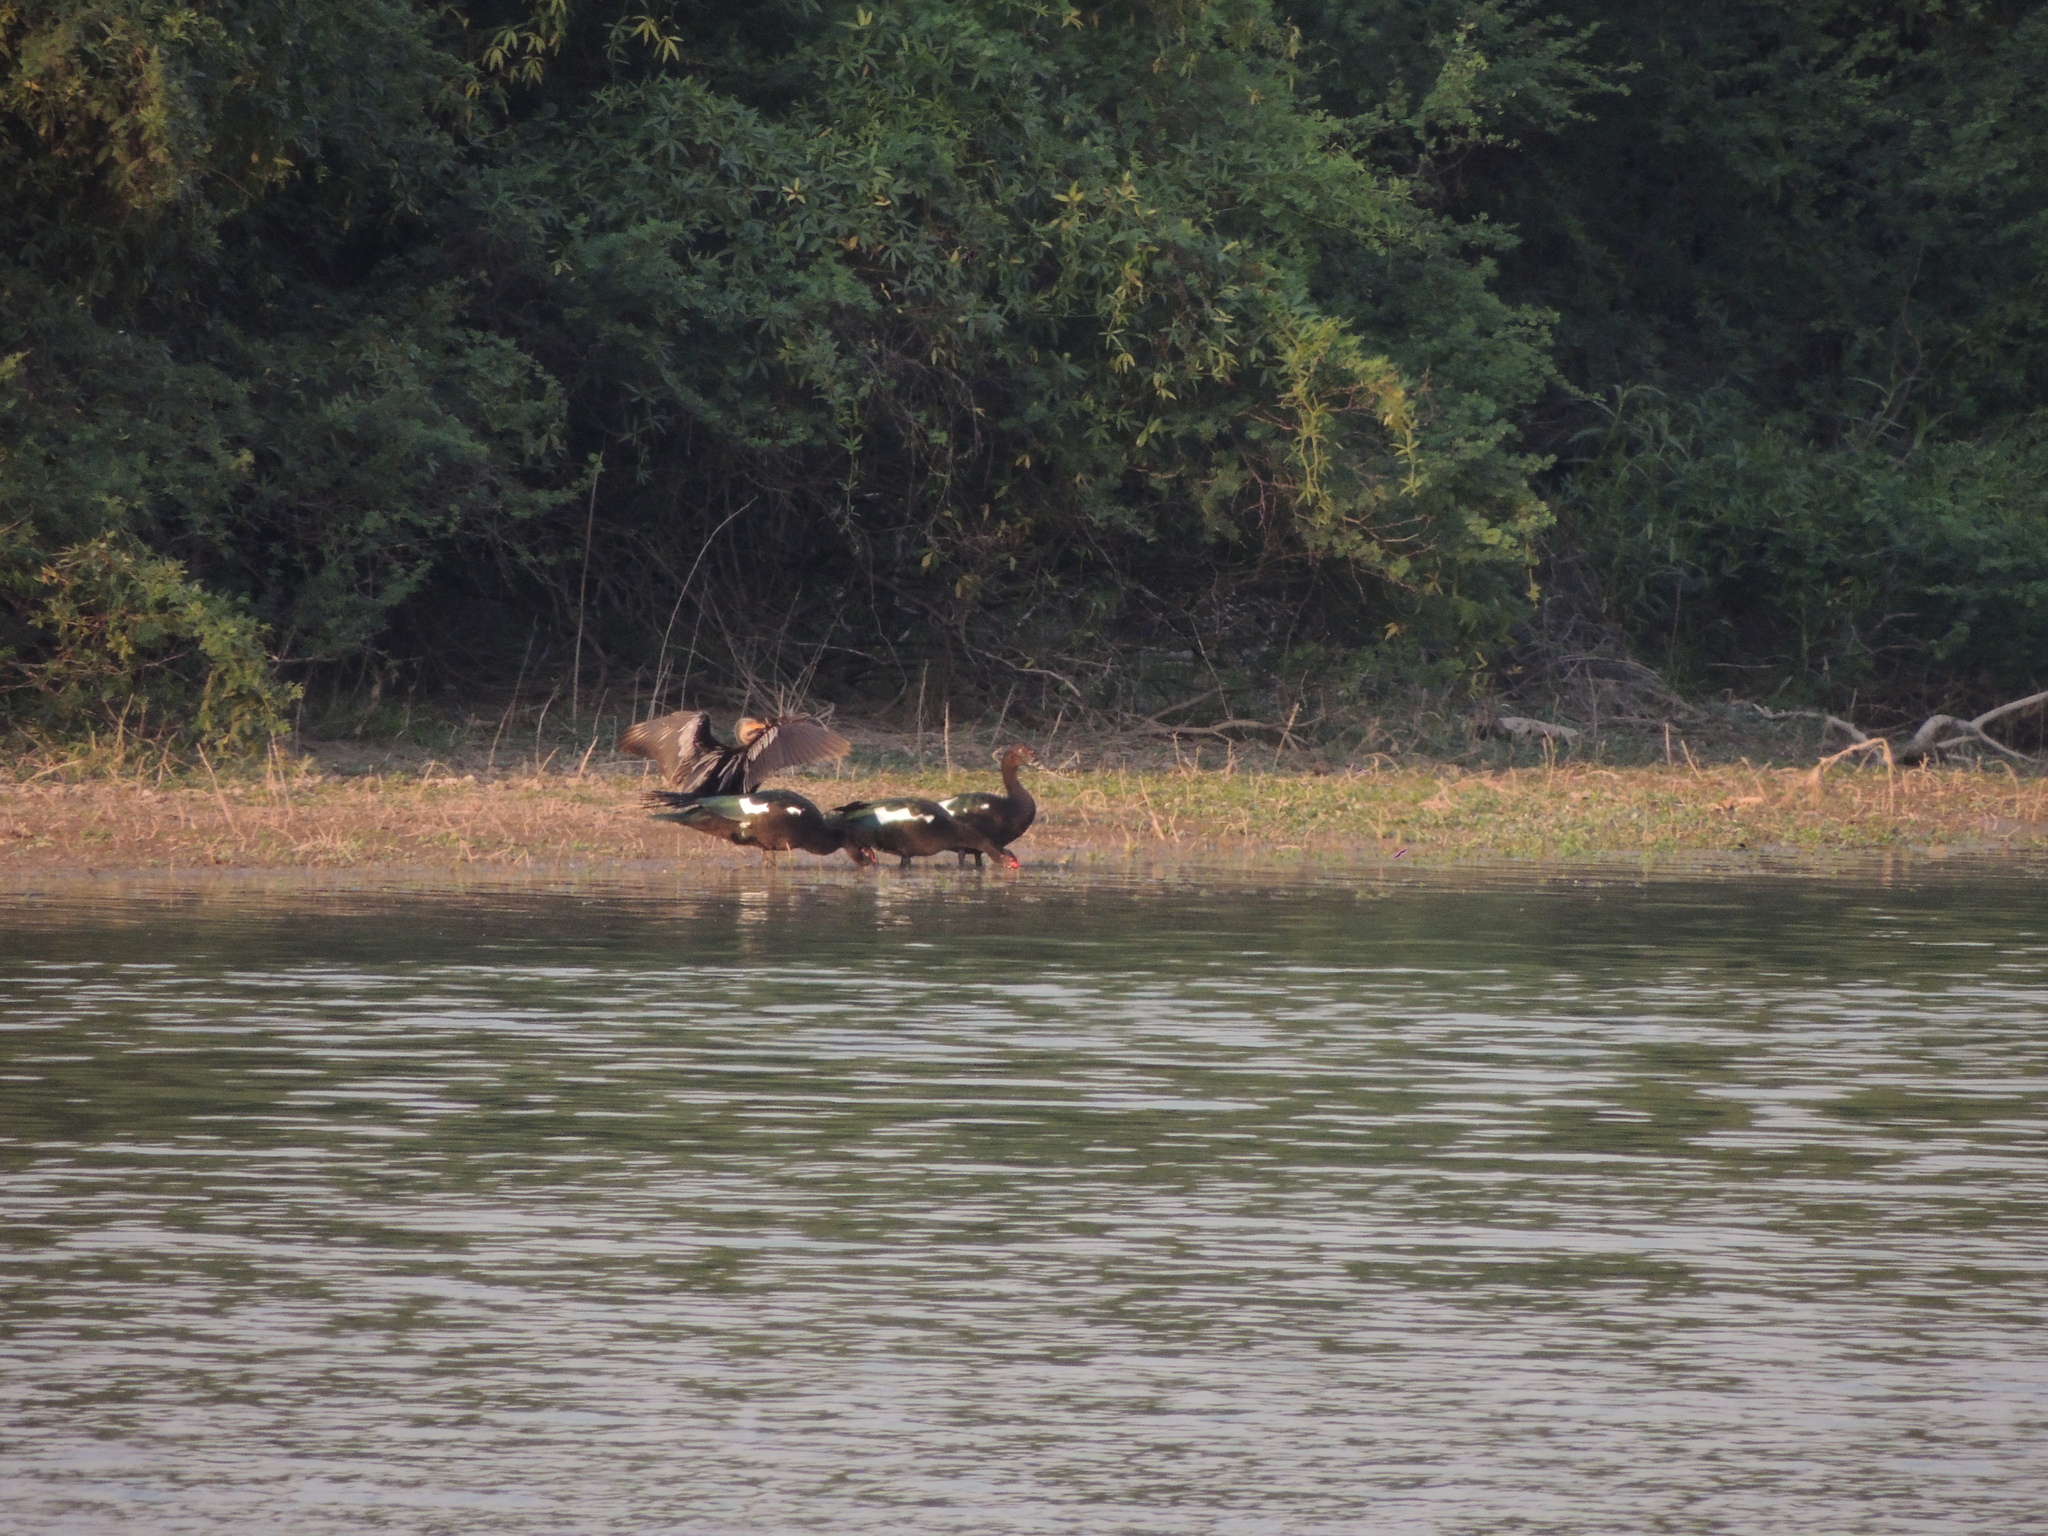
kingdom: Animalia
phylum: Chordata
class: Aves
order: Anseriformes
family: Anatidae
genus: Cairina
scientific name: Cairina moschata
